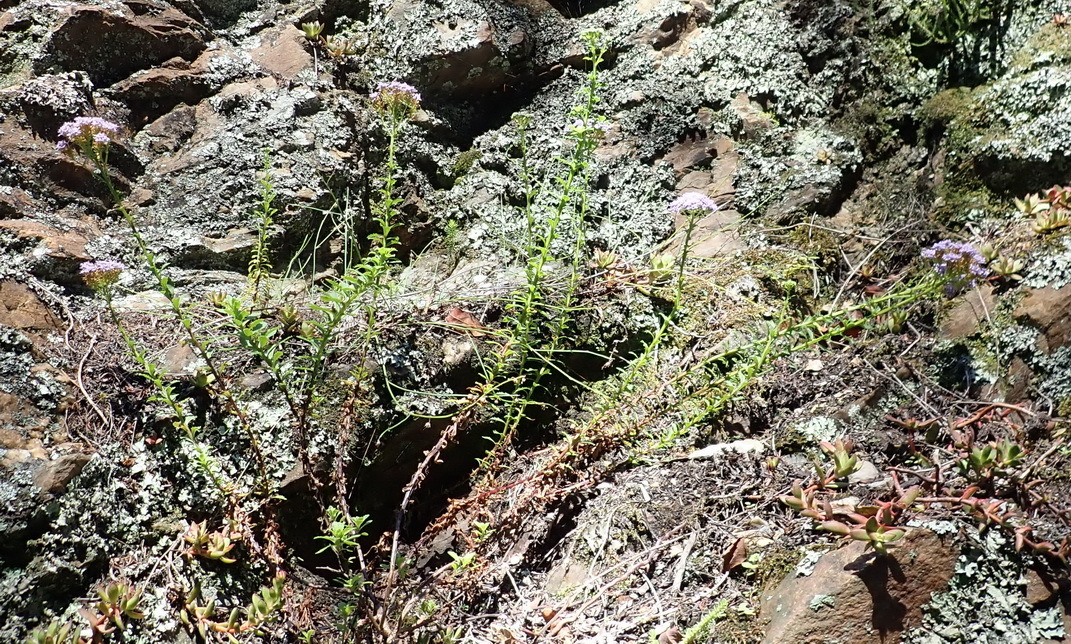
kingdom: Plantae
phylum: Tracheophyta
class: Magnoliopsida
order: Lamiales
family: Scrophulariaceae
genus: Pseudoselago
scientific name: Pseudoselago langebergensis
